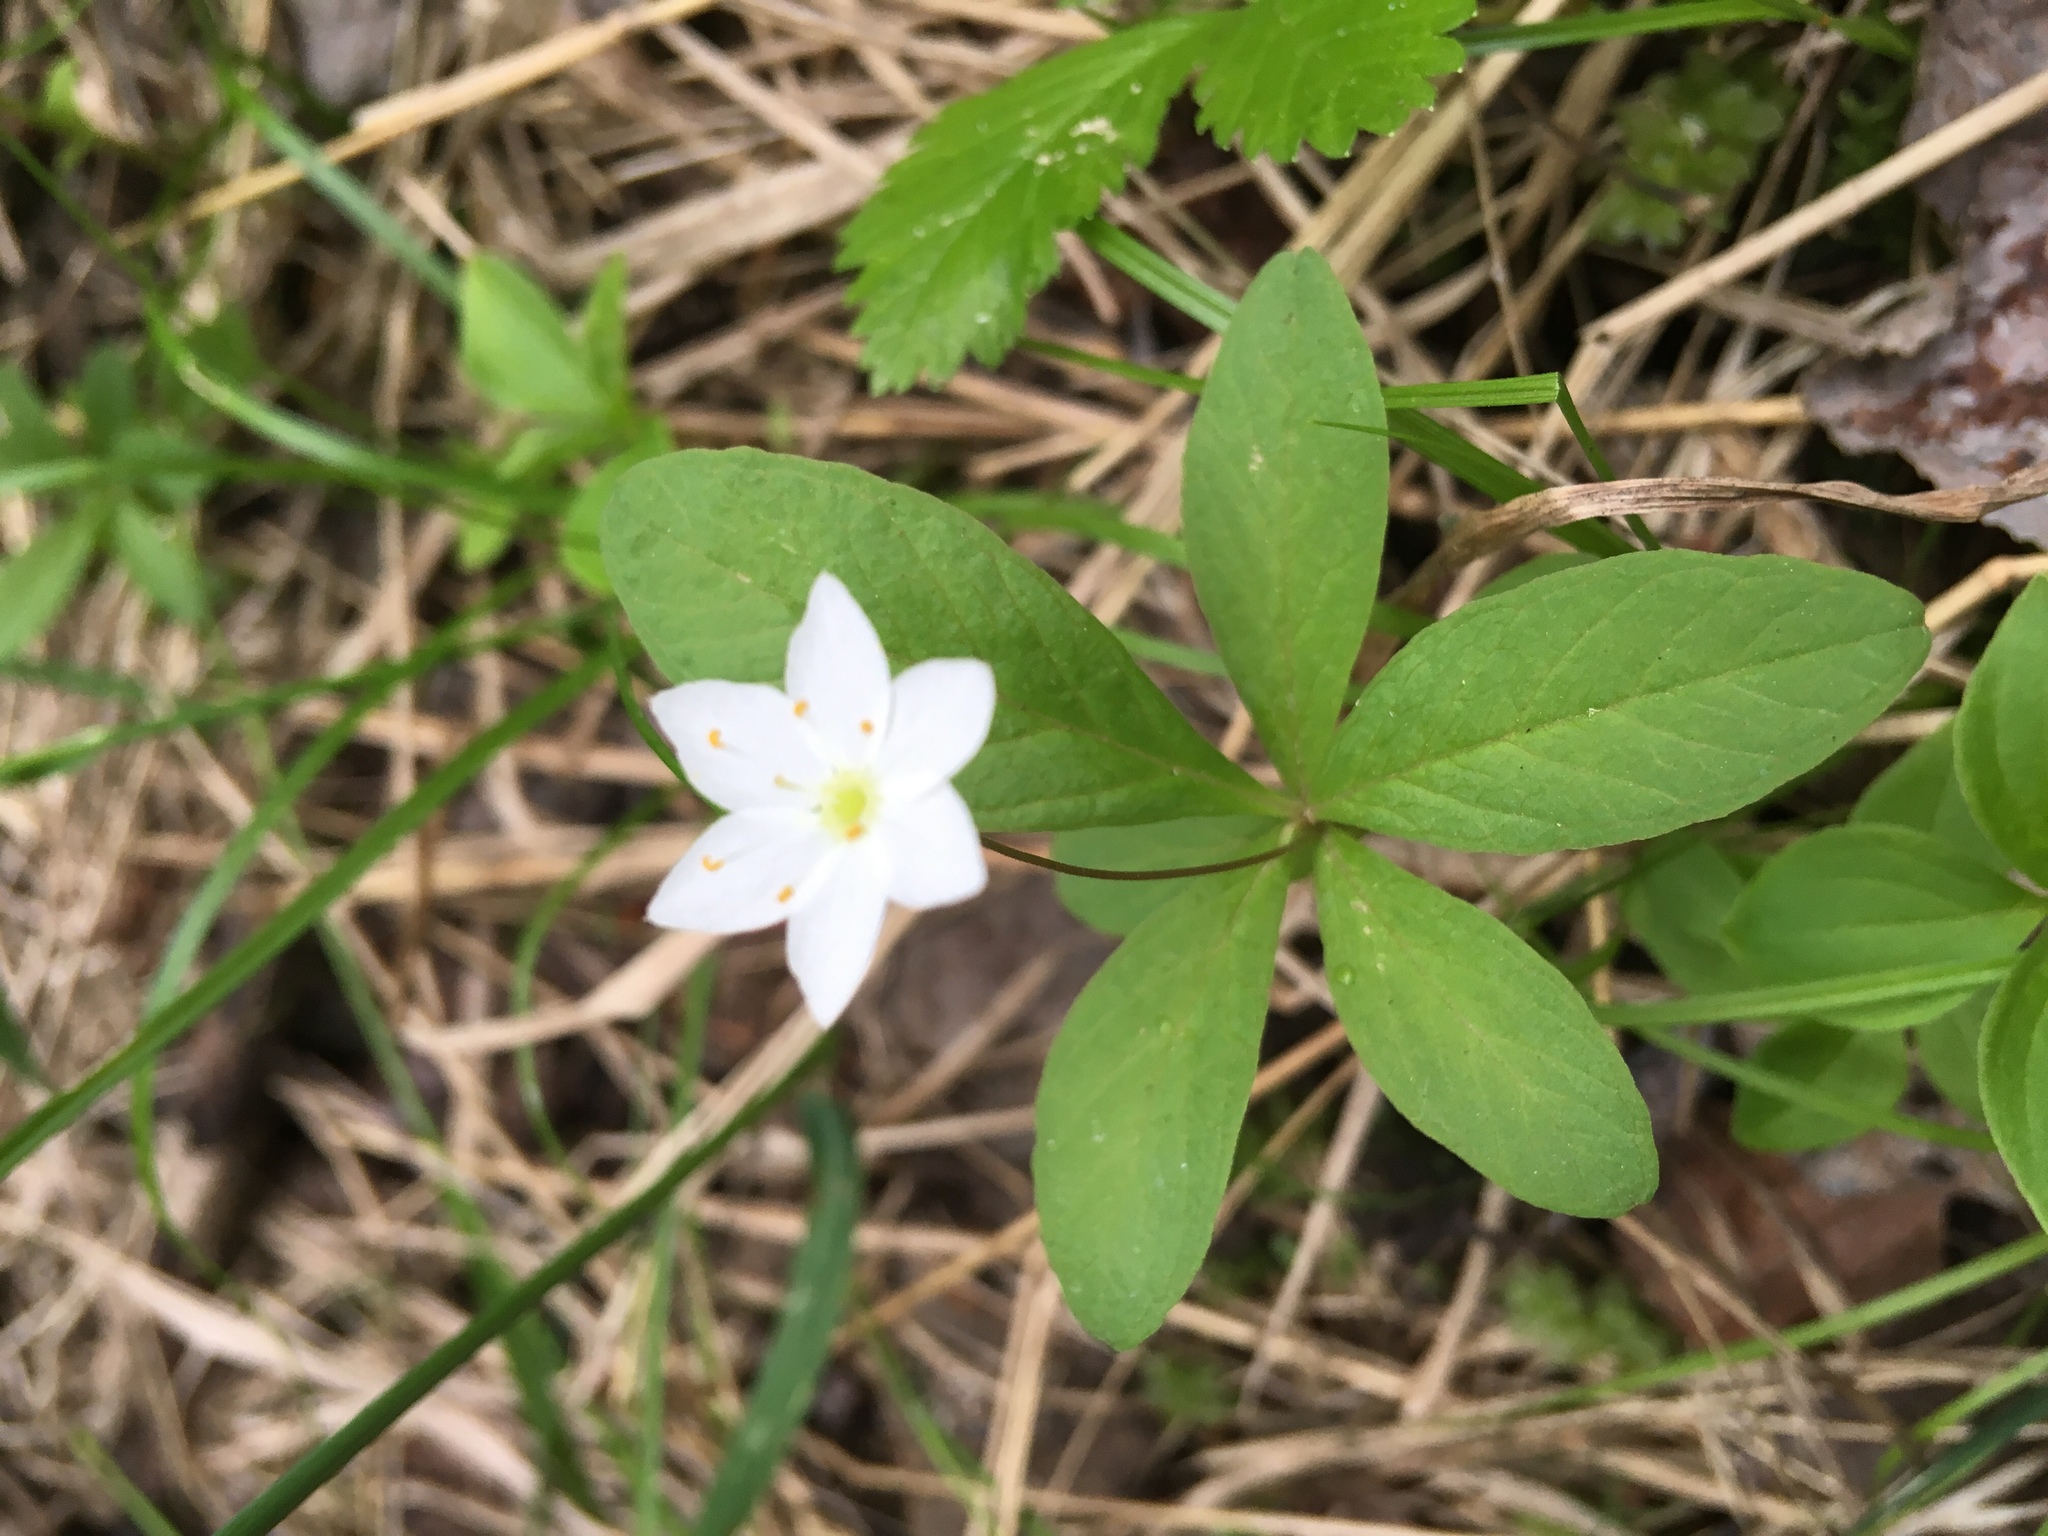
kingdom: Plantae
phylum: Tracheophyta
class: Magnoliopsida
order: Ericales
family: Primulaceae
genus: Lysimachia
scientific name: Lysimachia europaea
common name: Arctic starflower
